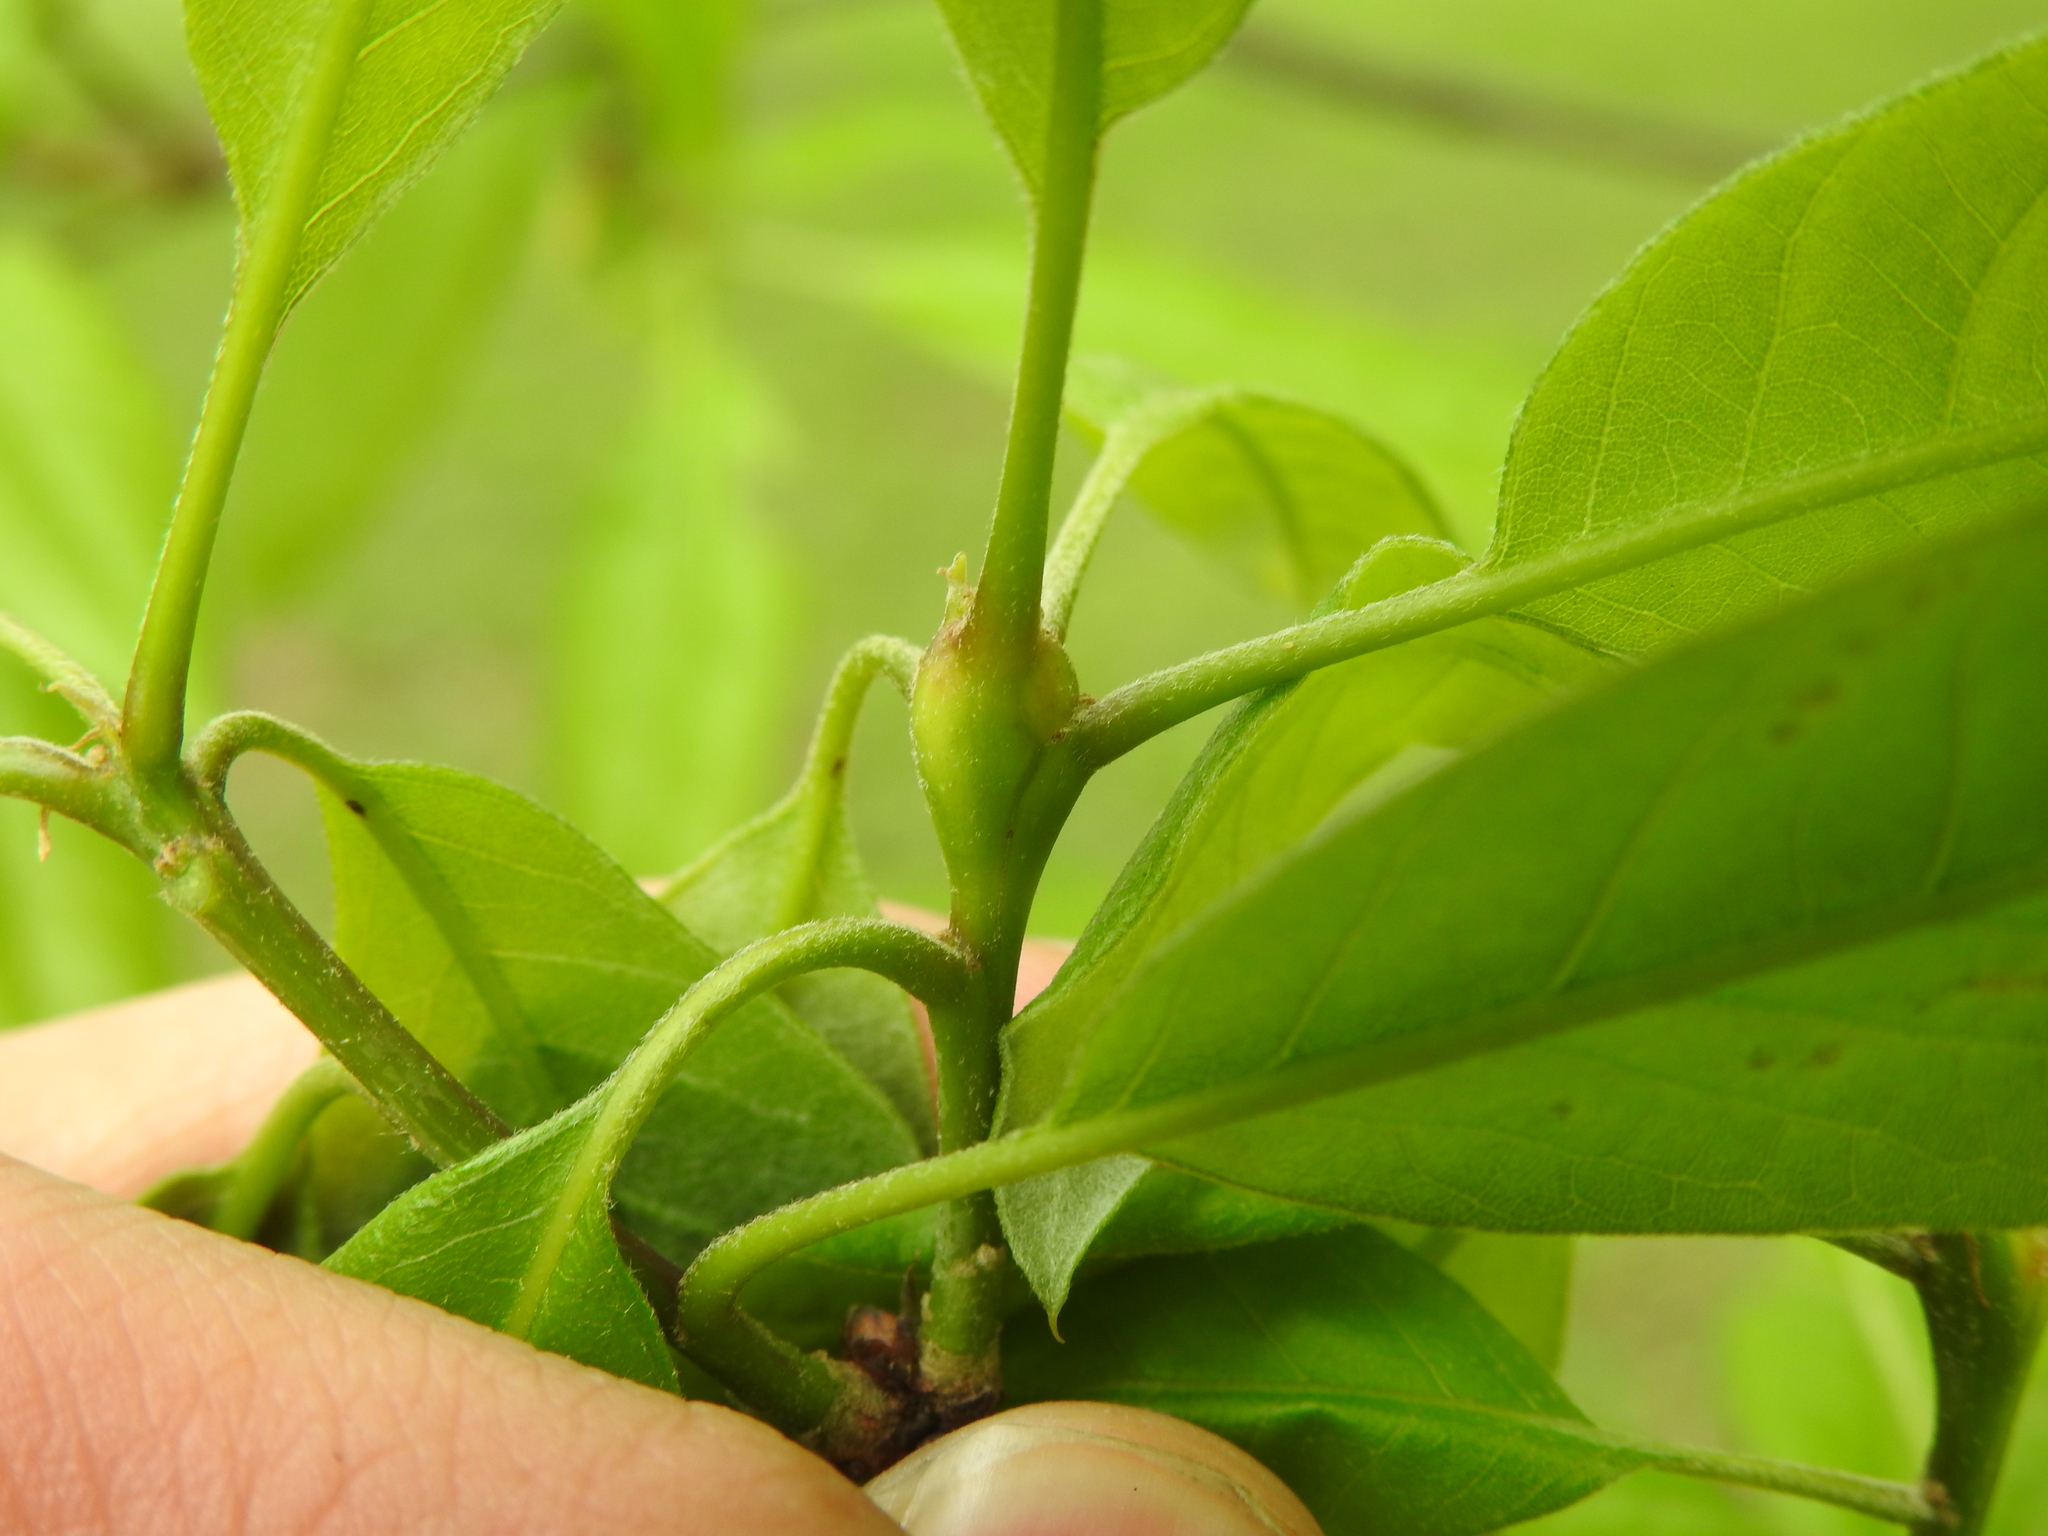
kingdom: Animalia
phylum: Arthropoda
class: Insecta
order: Hymenoptera
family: Cynipidae
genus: Zapatella
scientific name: Zapatella quercusphellos
